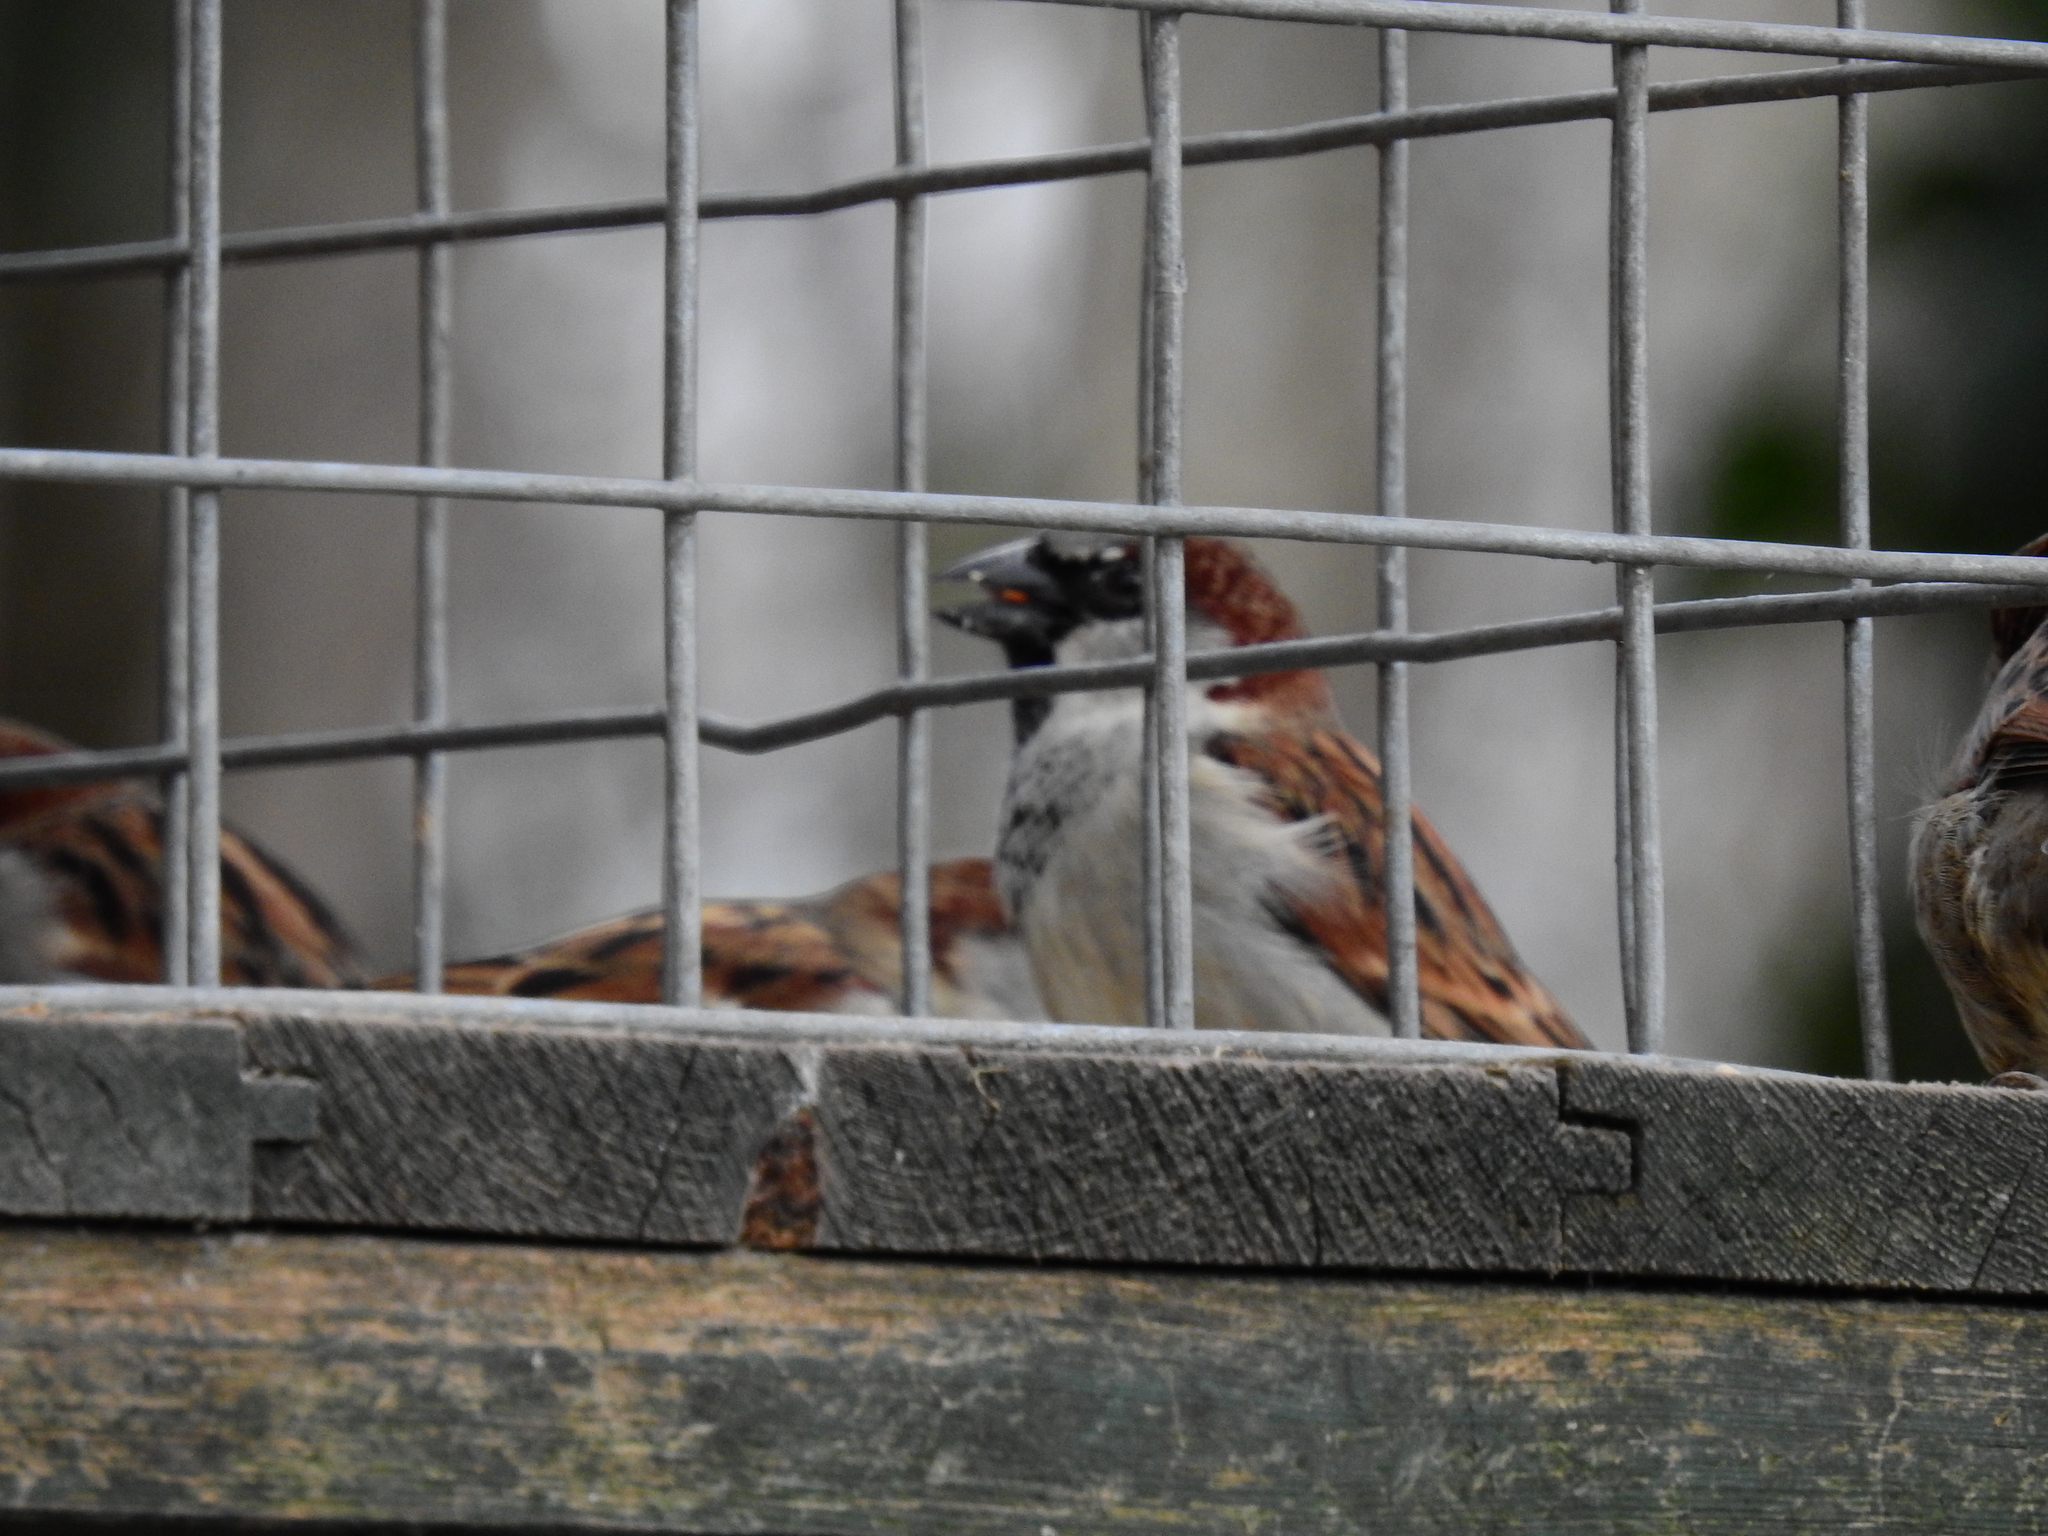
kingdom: Animalia
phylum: Chordata
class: Aves
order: Passeriformes
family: Passeridae
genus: Passer
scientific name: Passer domesticus
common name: House sparrow
